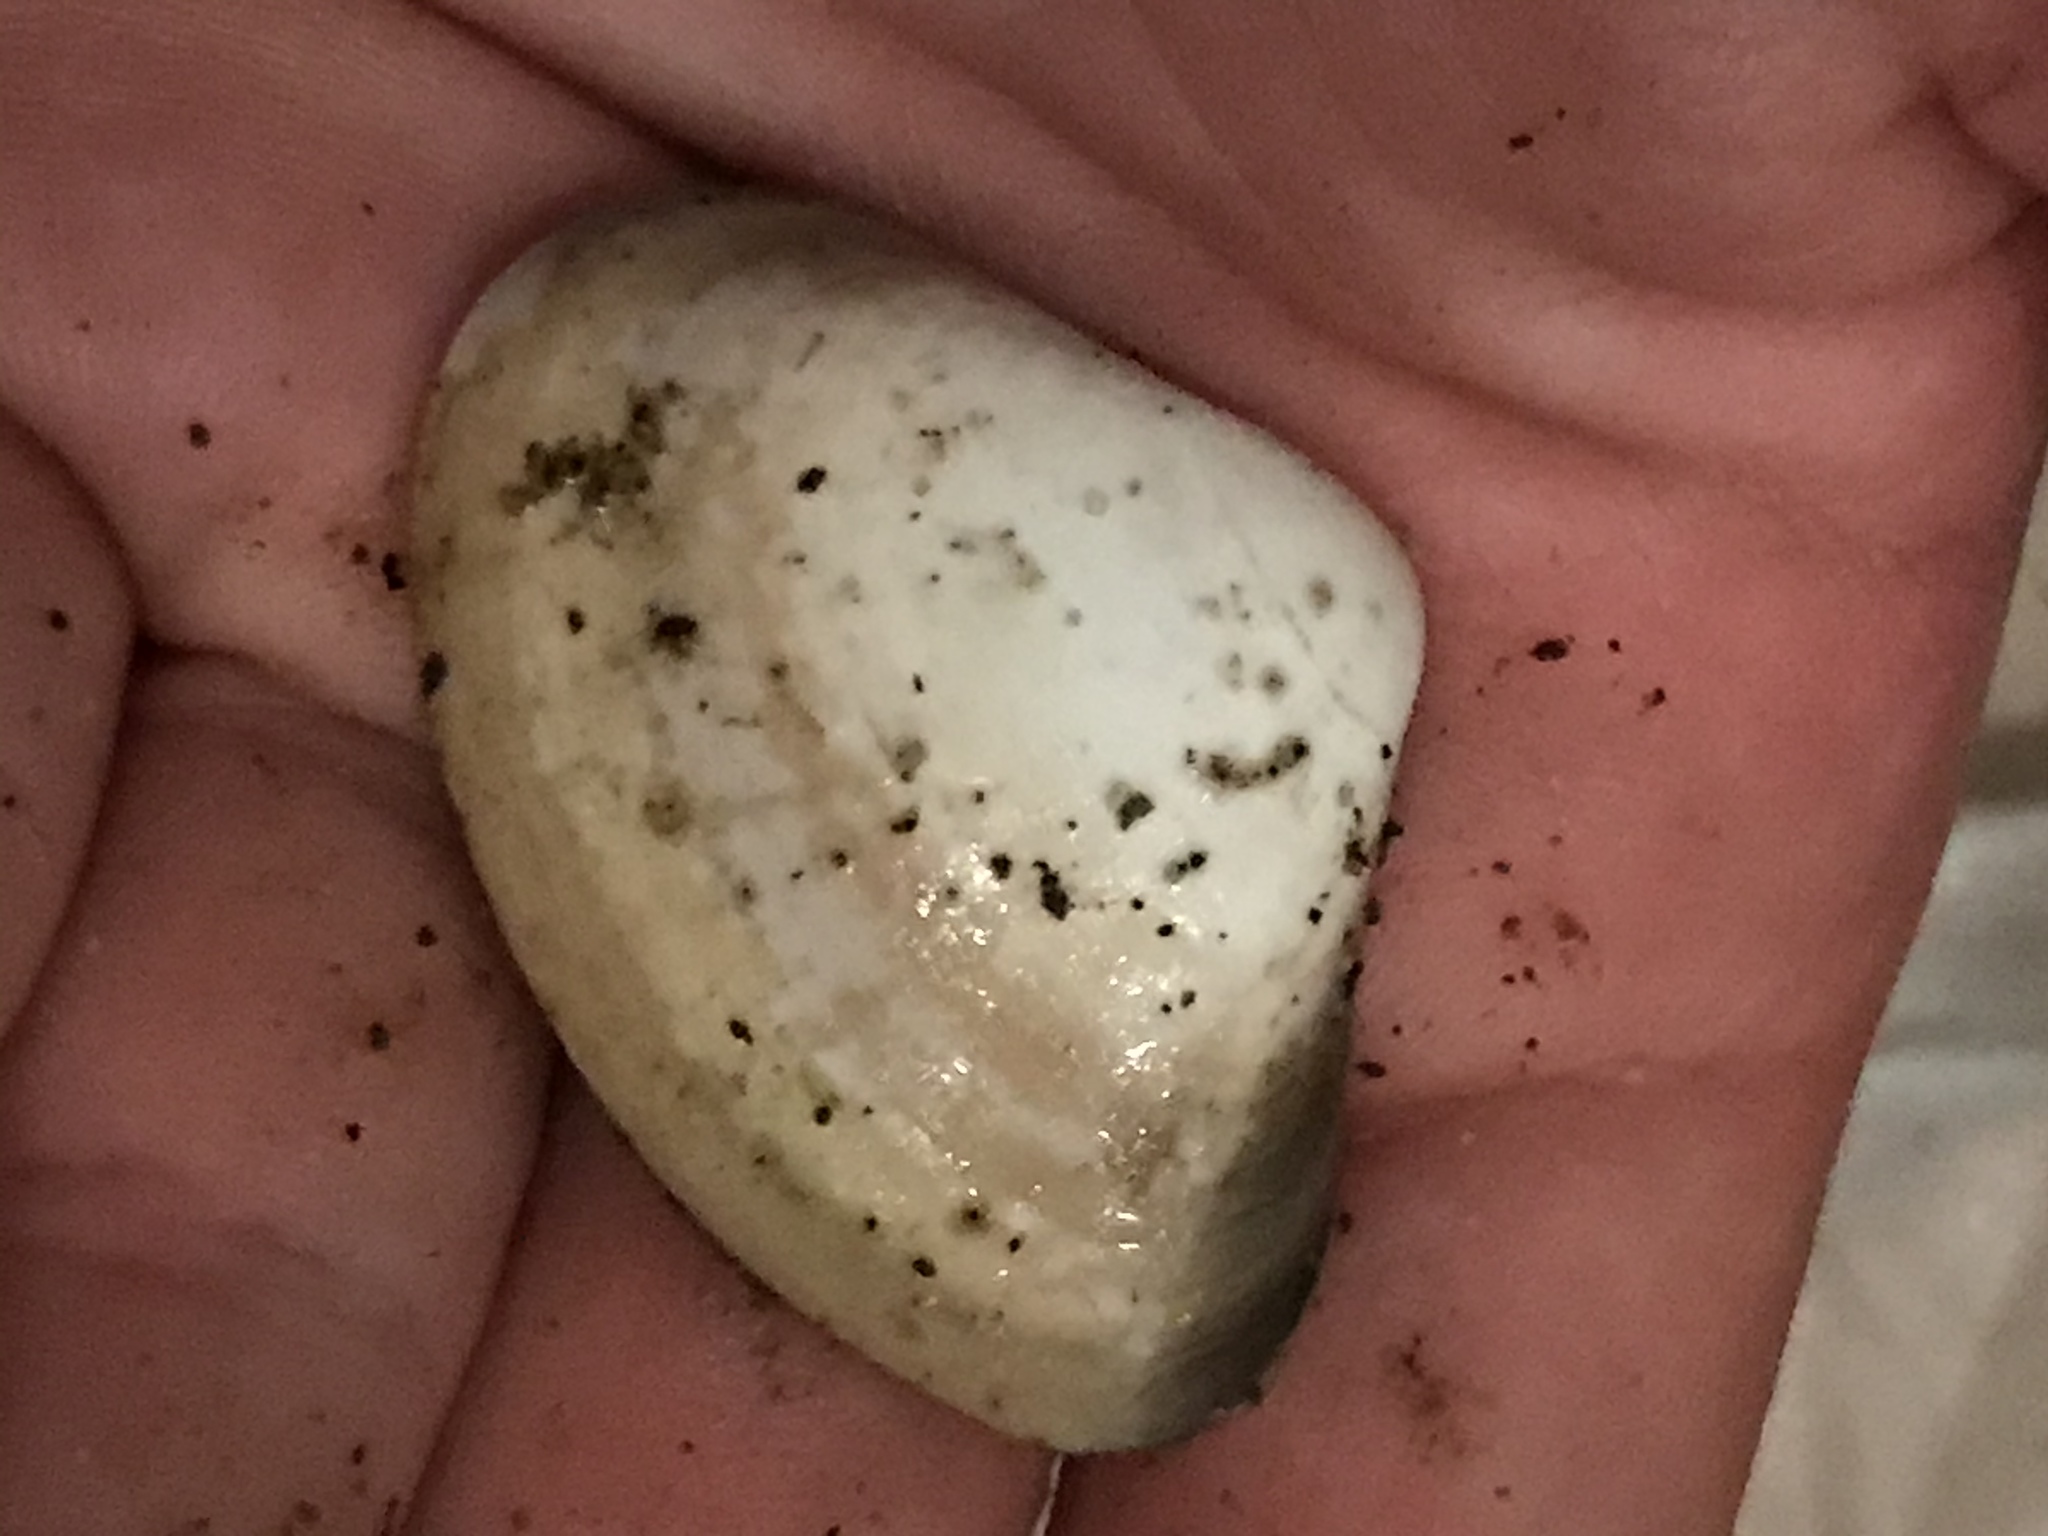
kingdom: Animalia
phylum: Mollusca
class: Bivalvia
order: Venerida
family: Veneridae
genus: Tivela
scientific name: Tivela stultorum
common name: Pismo clam
